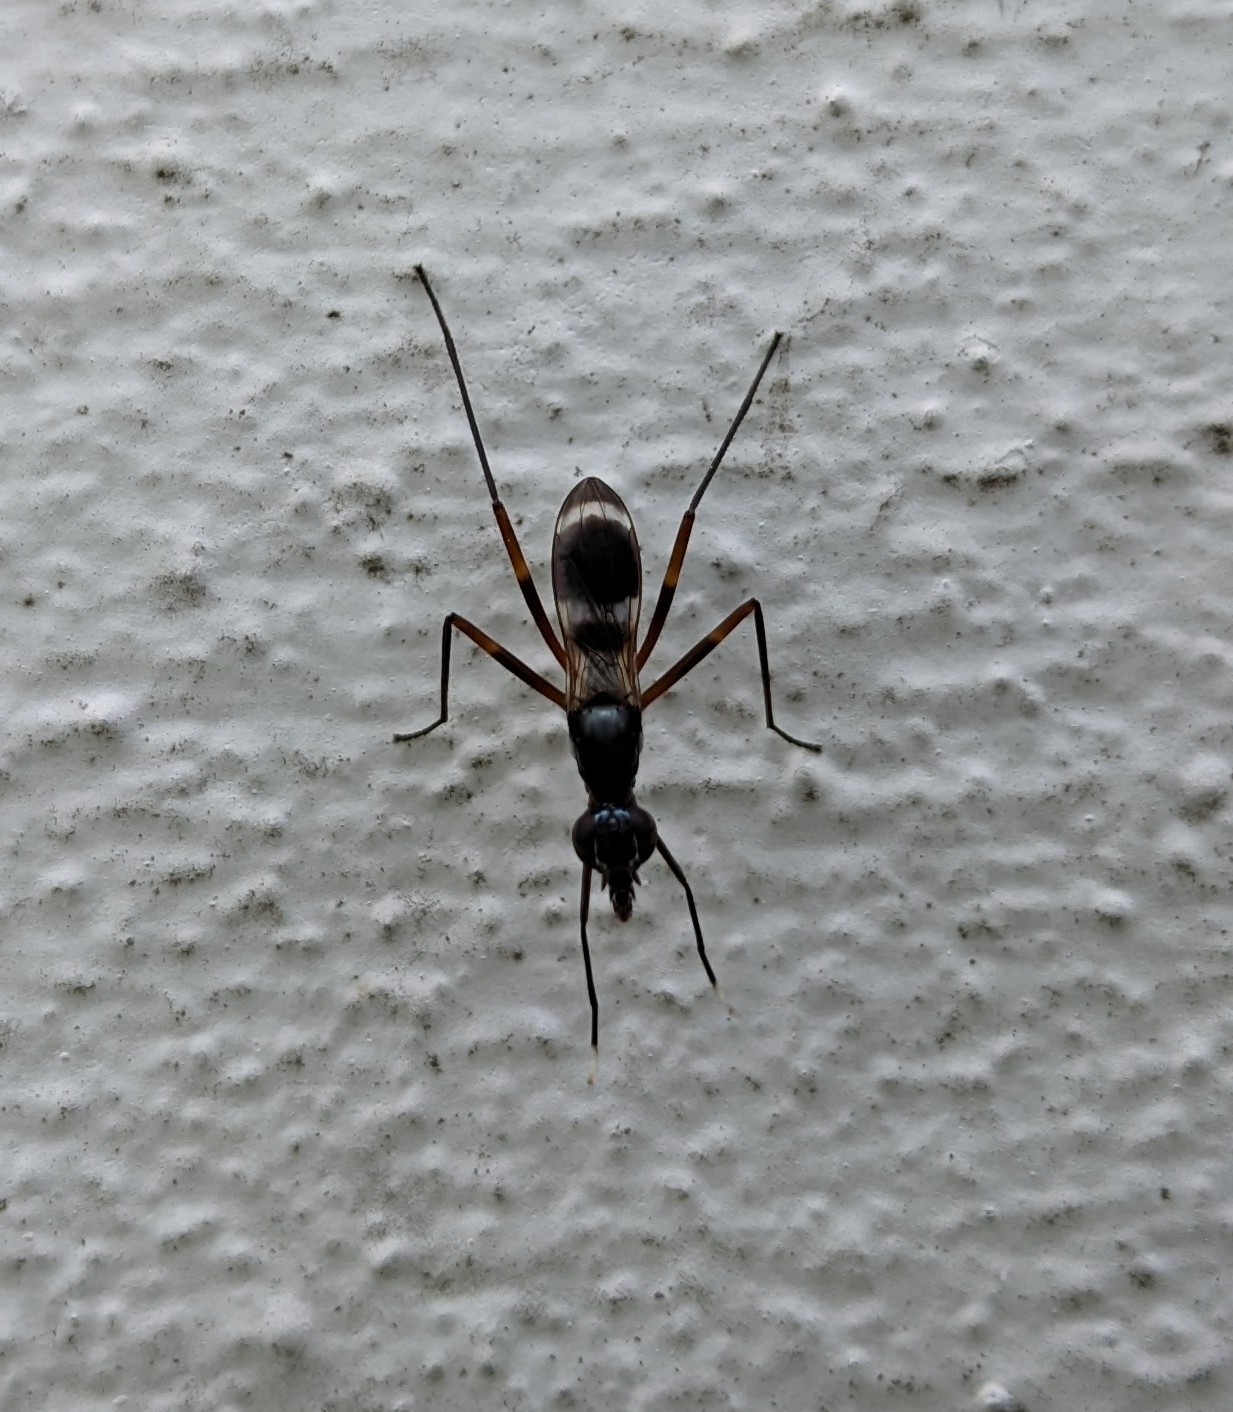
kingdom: Animalia
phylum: Arthropoda
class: Insecta
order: Diptera
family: Micropezidae
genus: Taeniaptera
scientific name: Taeniaptera trivittata
